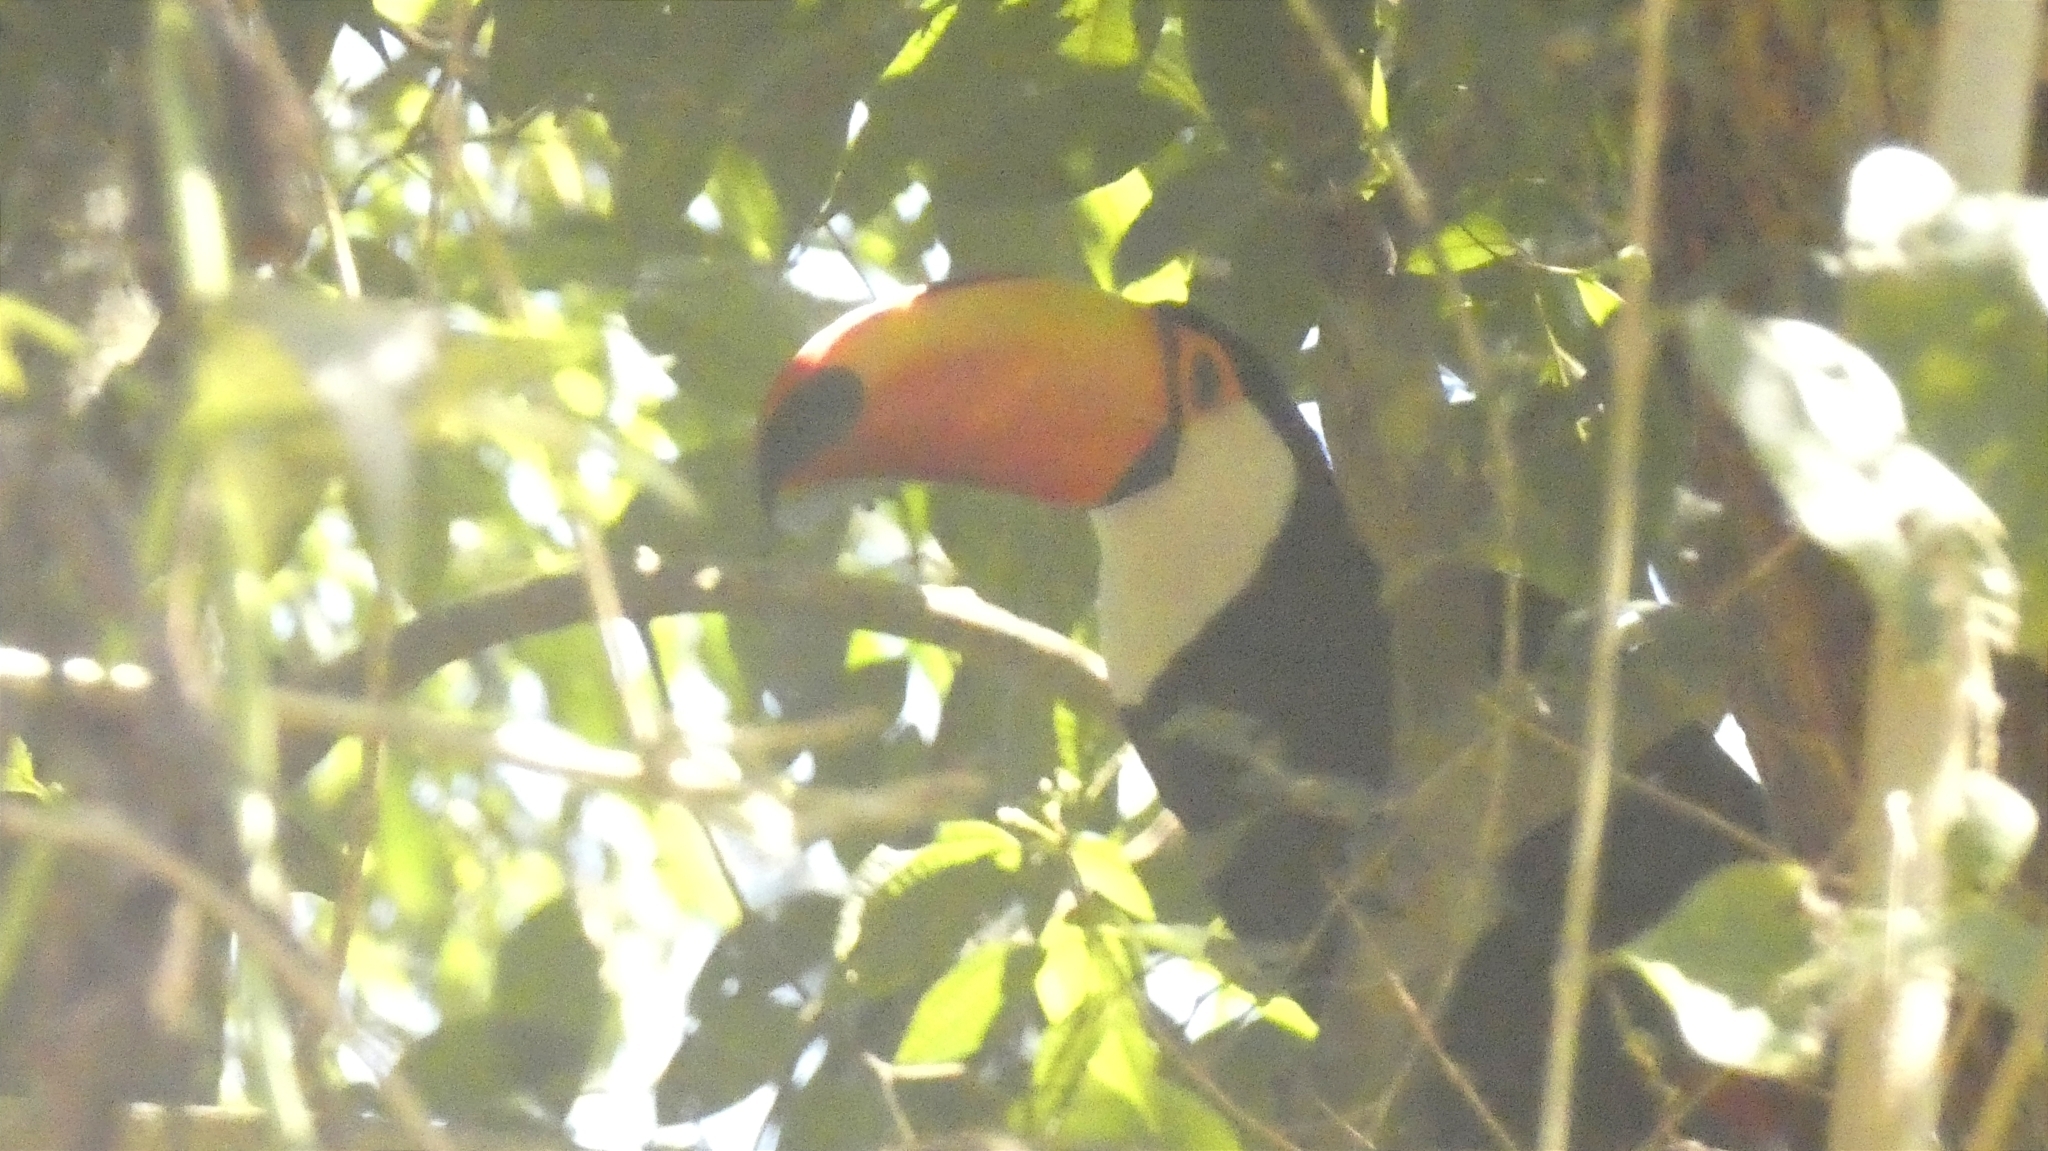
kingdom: Animalia
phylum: Chordata
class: Aves
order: Piciformes
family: Ramphastidae
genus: Ramphastos
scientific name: Ramphastos toco
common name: Toco toucan
